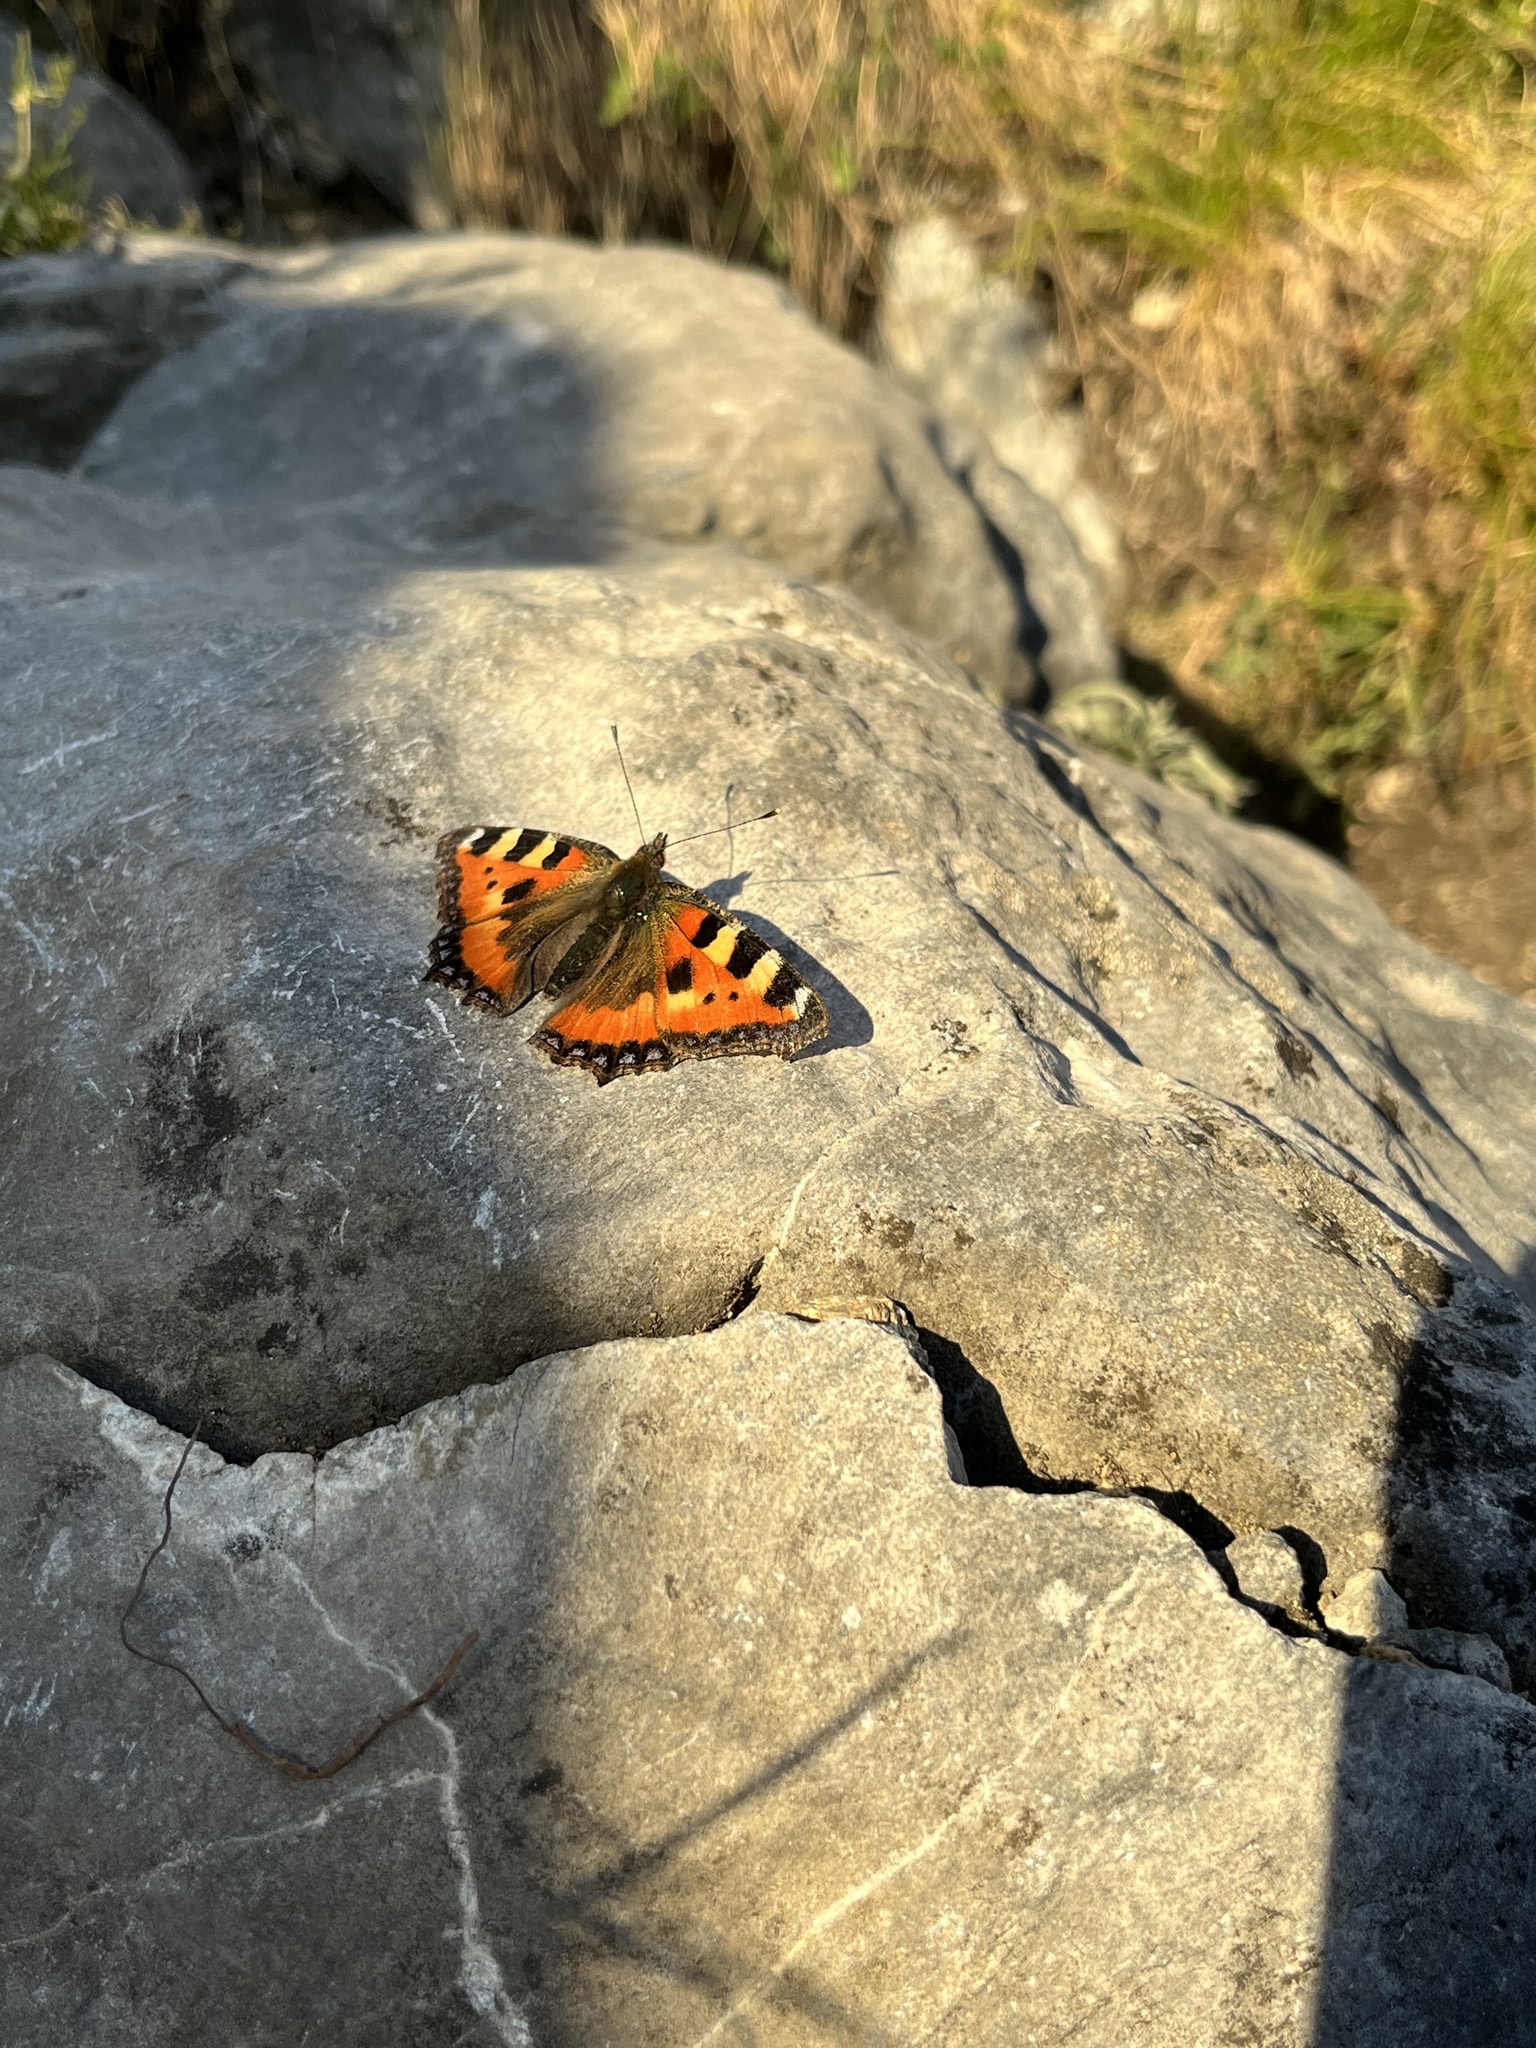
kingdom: Animalia
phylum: Arthropoda
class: Insecta
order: Lepidoptera
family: Nymphalidae
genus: Aglais
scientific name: Aglais urticae
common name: Small tortoiseshell
